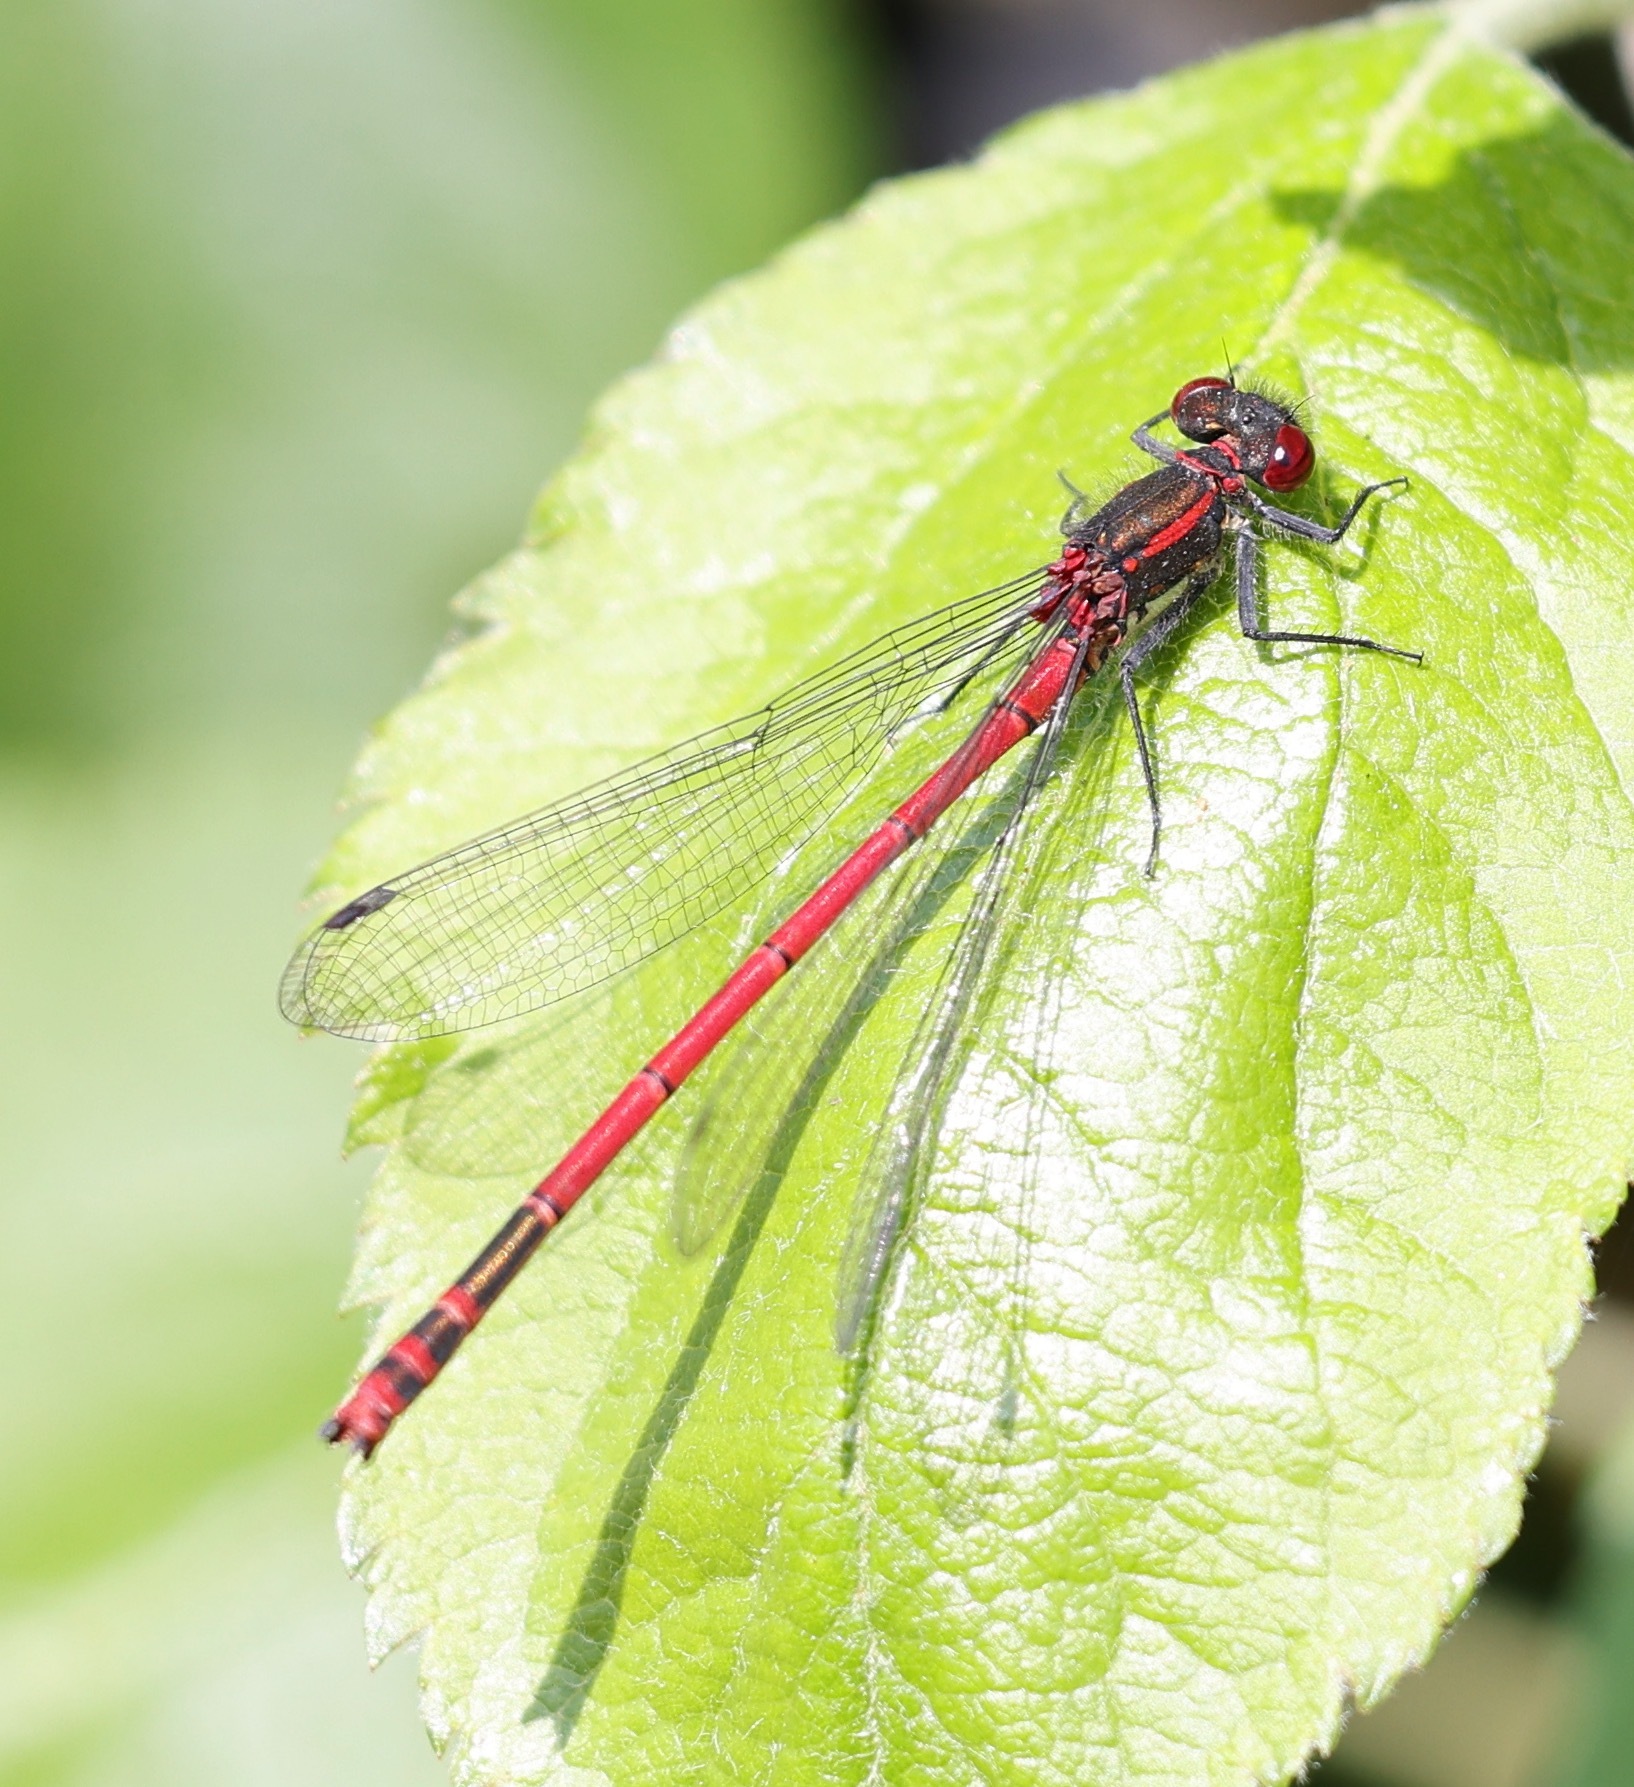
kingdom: Animalia
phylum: Arthropoda
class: Insecta
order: Odonata
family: Coenagrionidae
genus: Pyrrhosoma
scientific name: Pyrrhosoma nymphula
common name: Large red damsel
